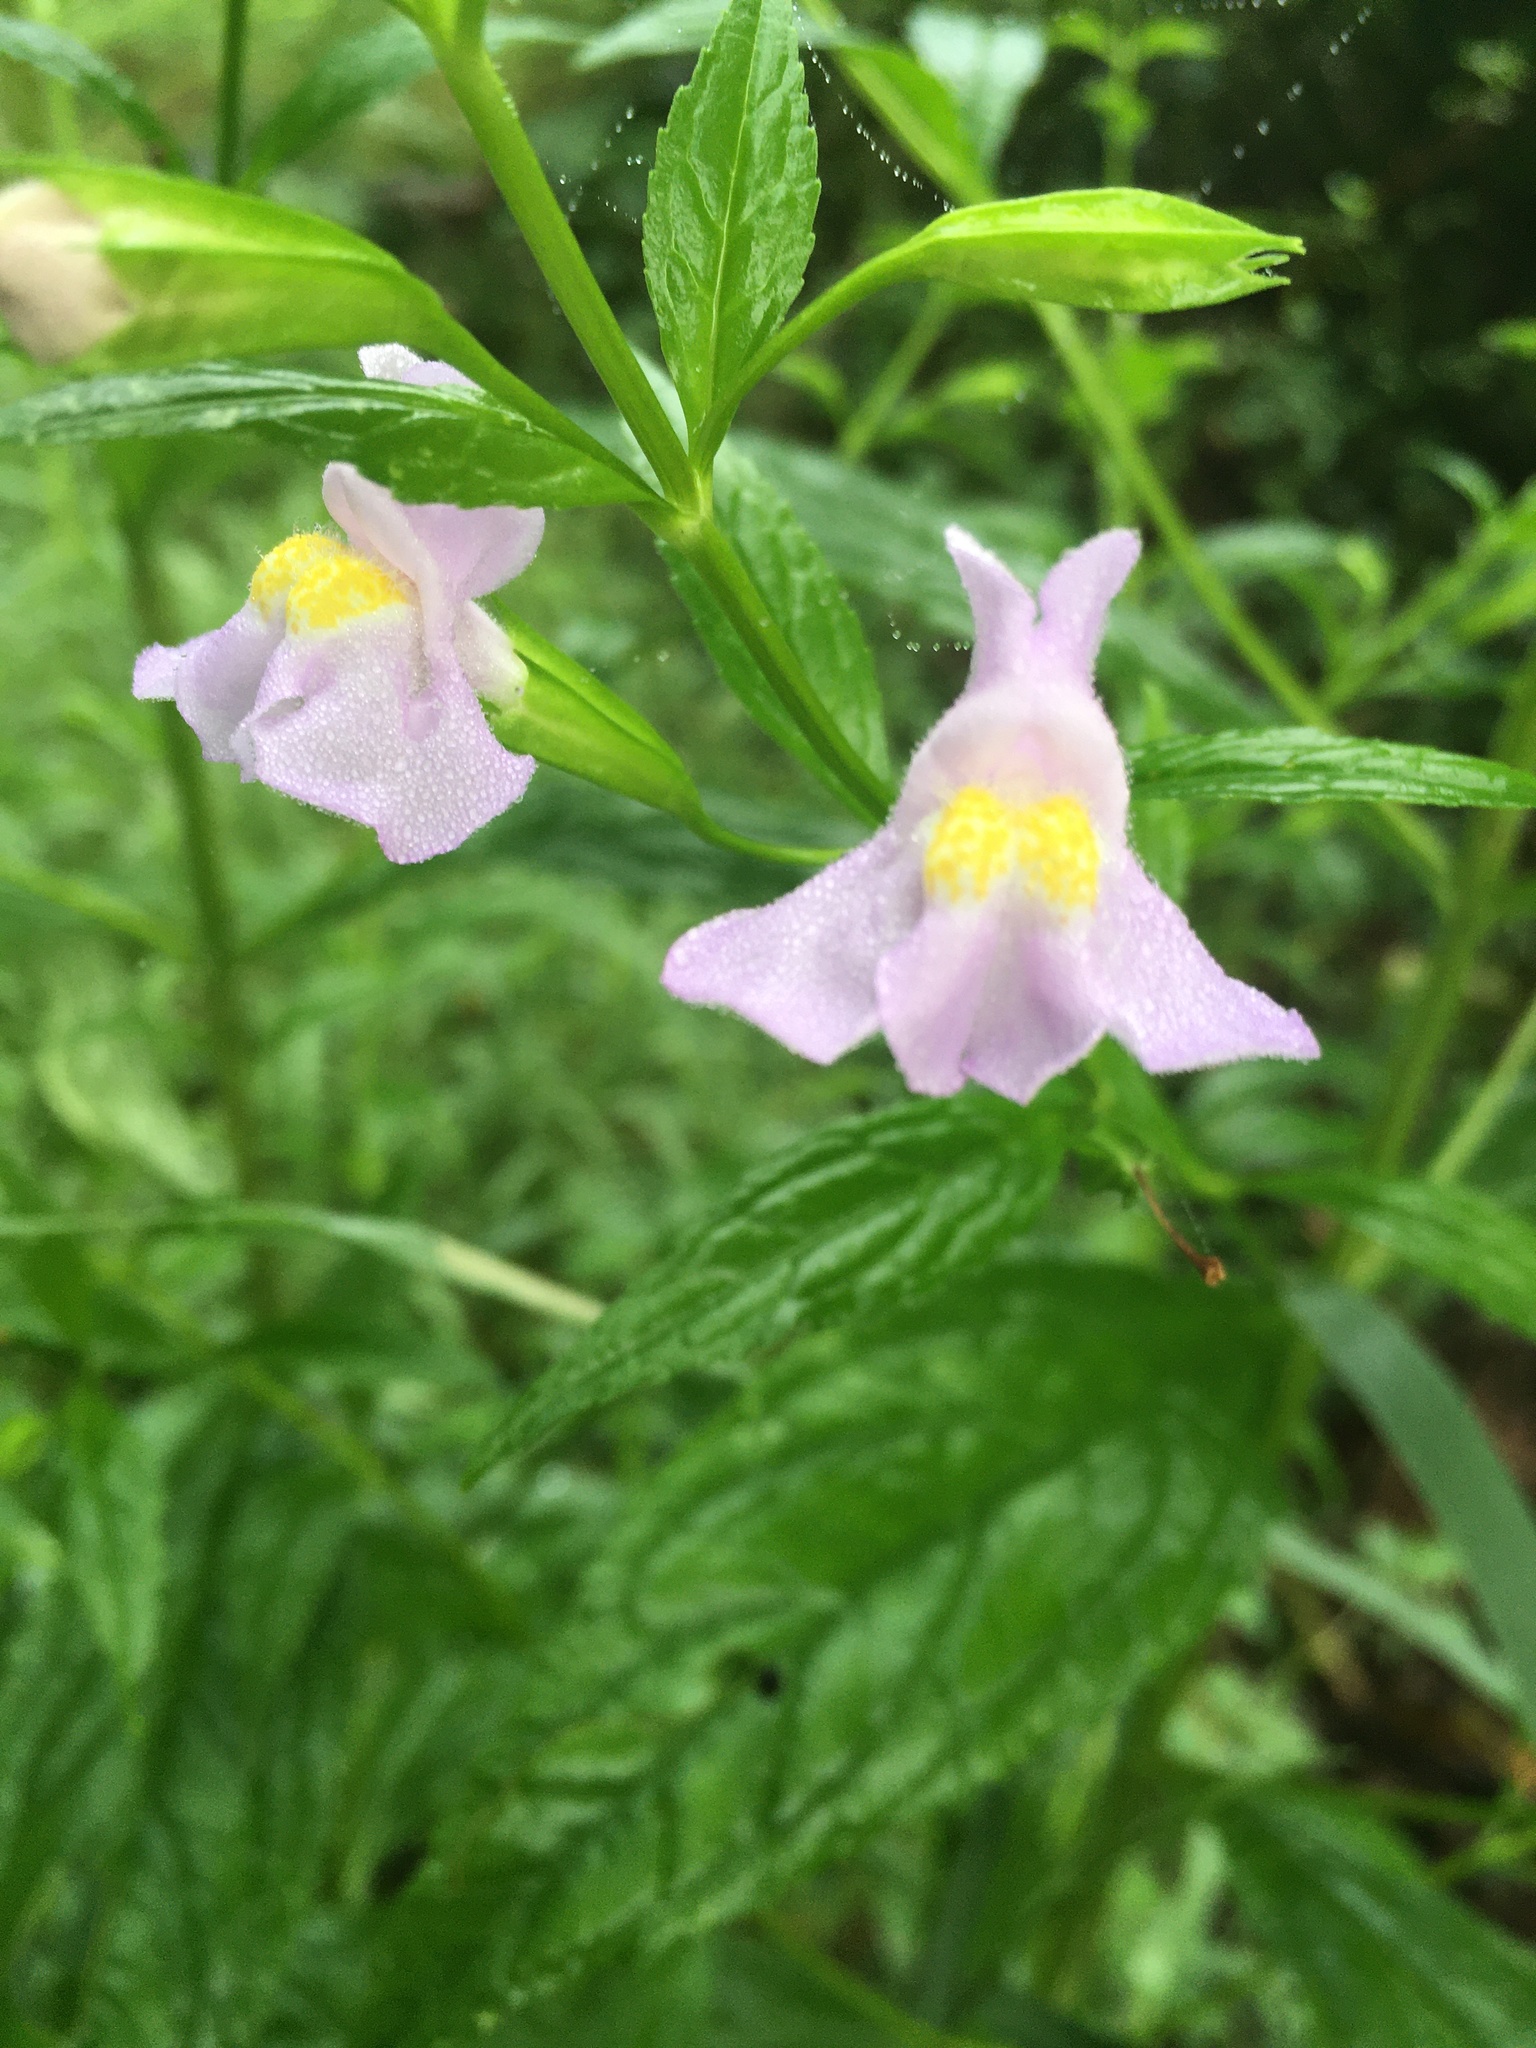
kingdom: Plantae
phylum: Tracheophyta
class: Magnoliopsida
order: Lamiales
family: Phrymaceae
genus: Mimulus
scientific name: Mimulus ringens
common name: Allegheny monkeyflower
